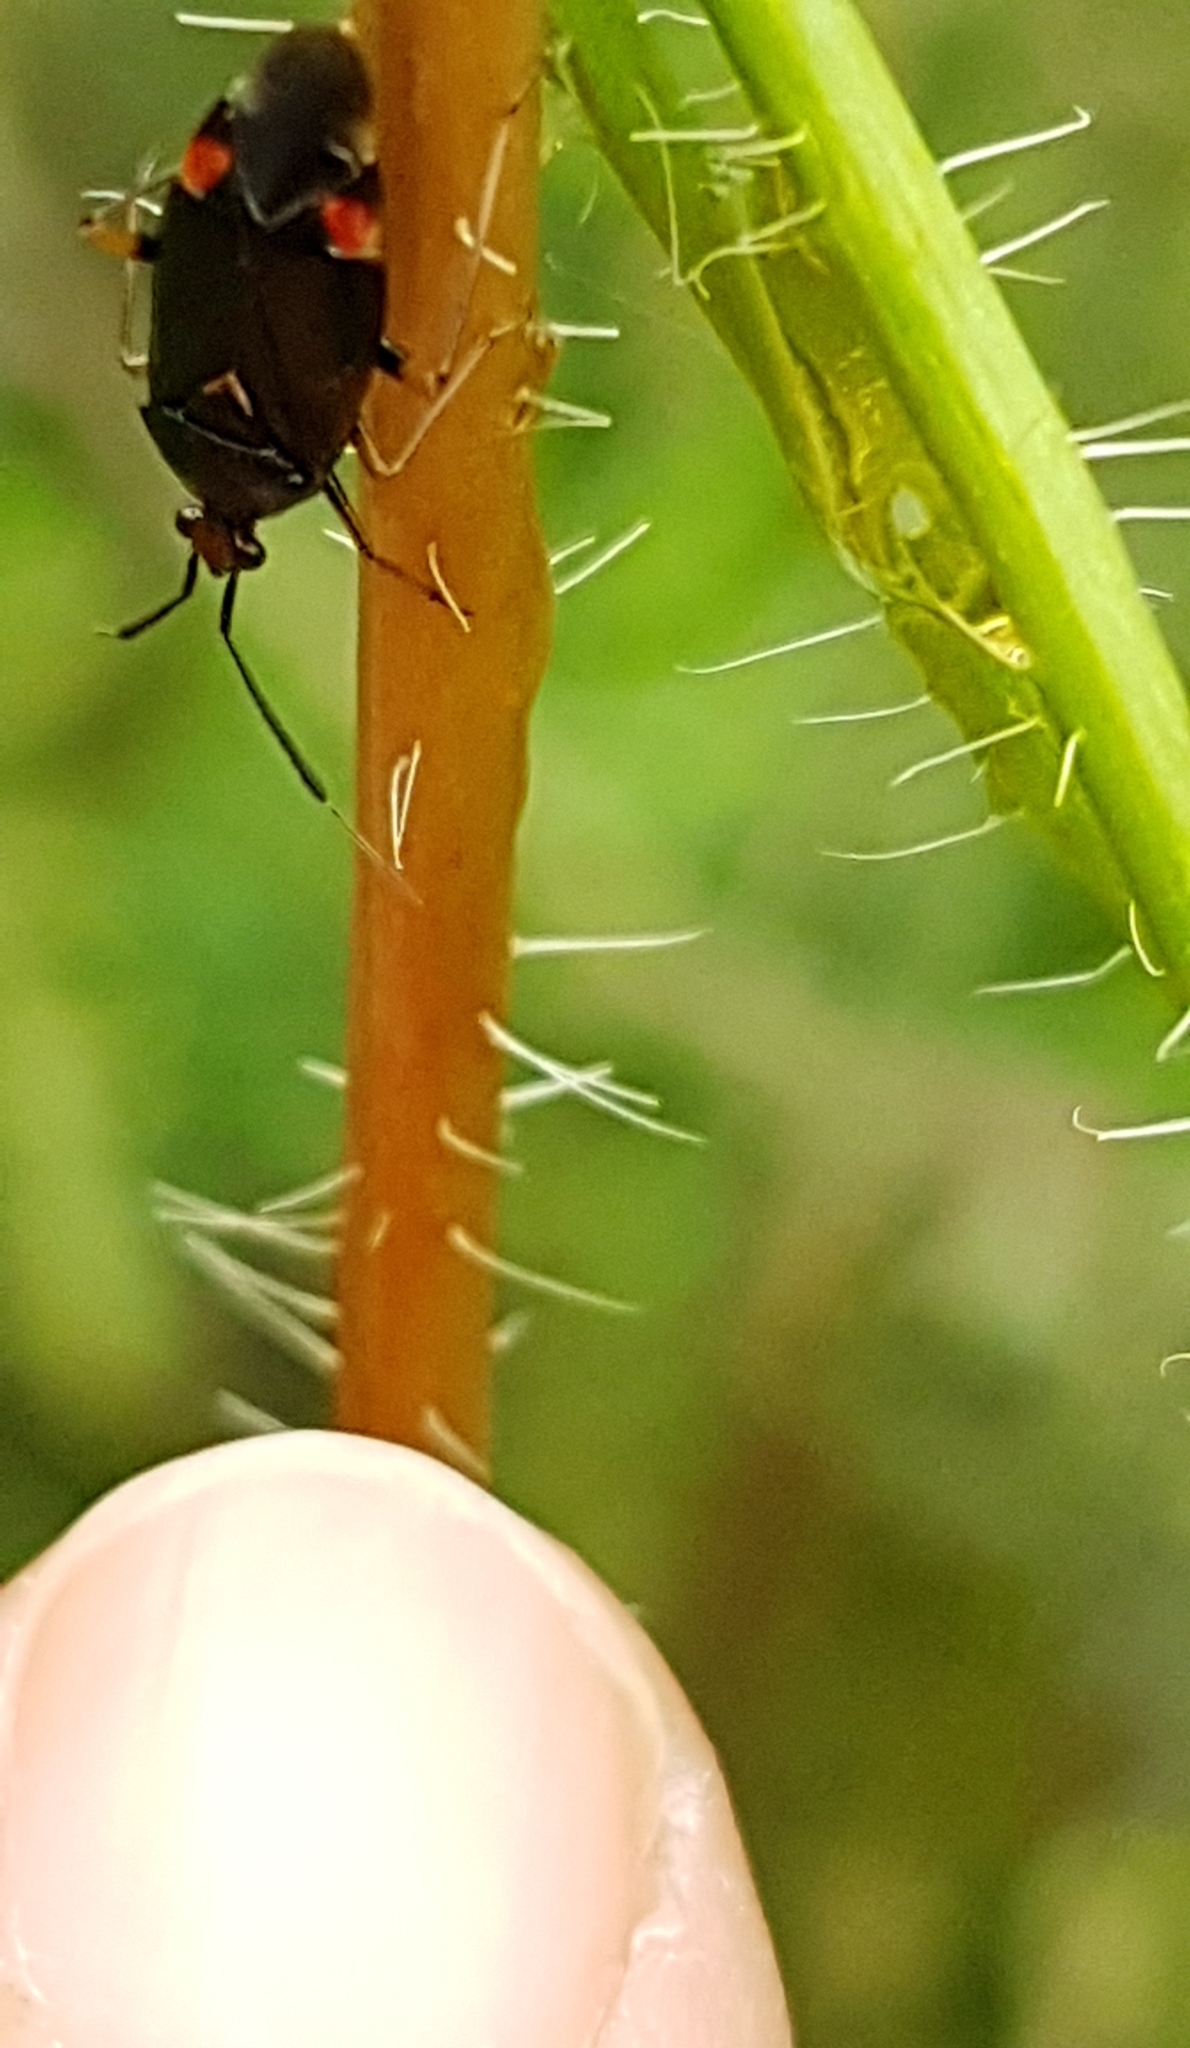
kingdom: Animalia
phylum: Arthropoda
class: Insecta
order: Hemiptera
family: Miridae
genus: Deraeocoris
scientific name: Deraeocoris ruber
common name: Plant bug
